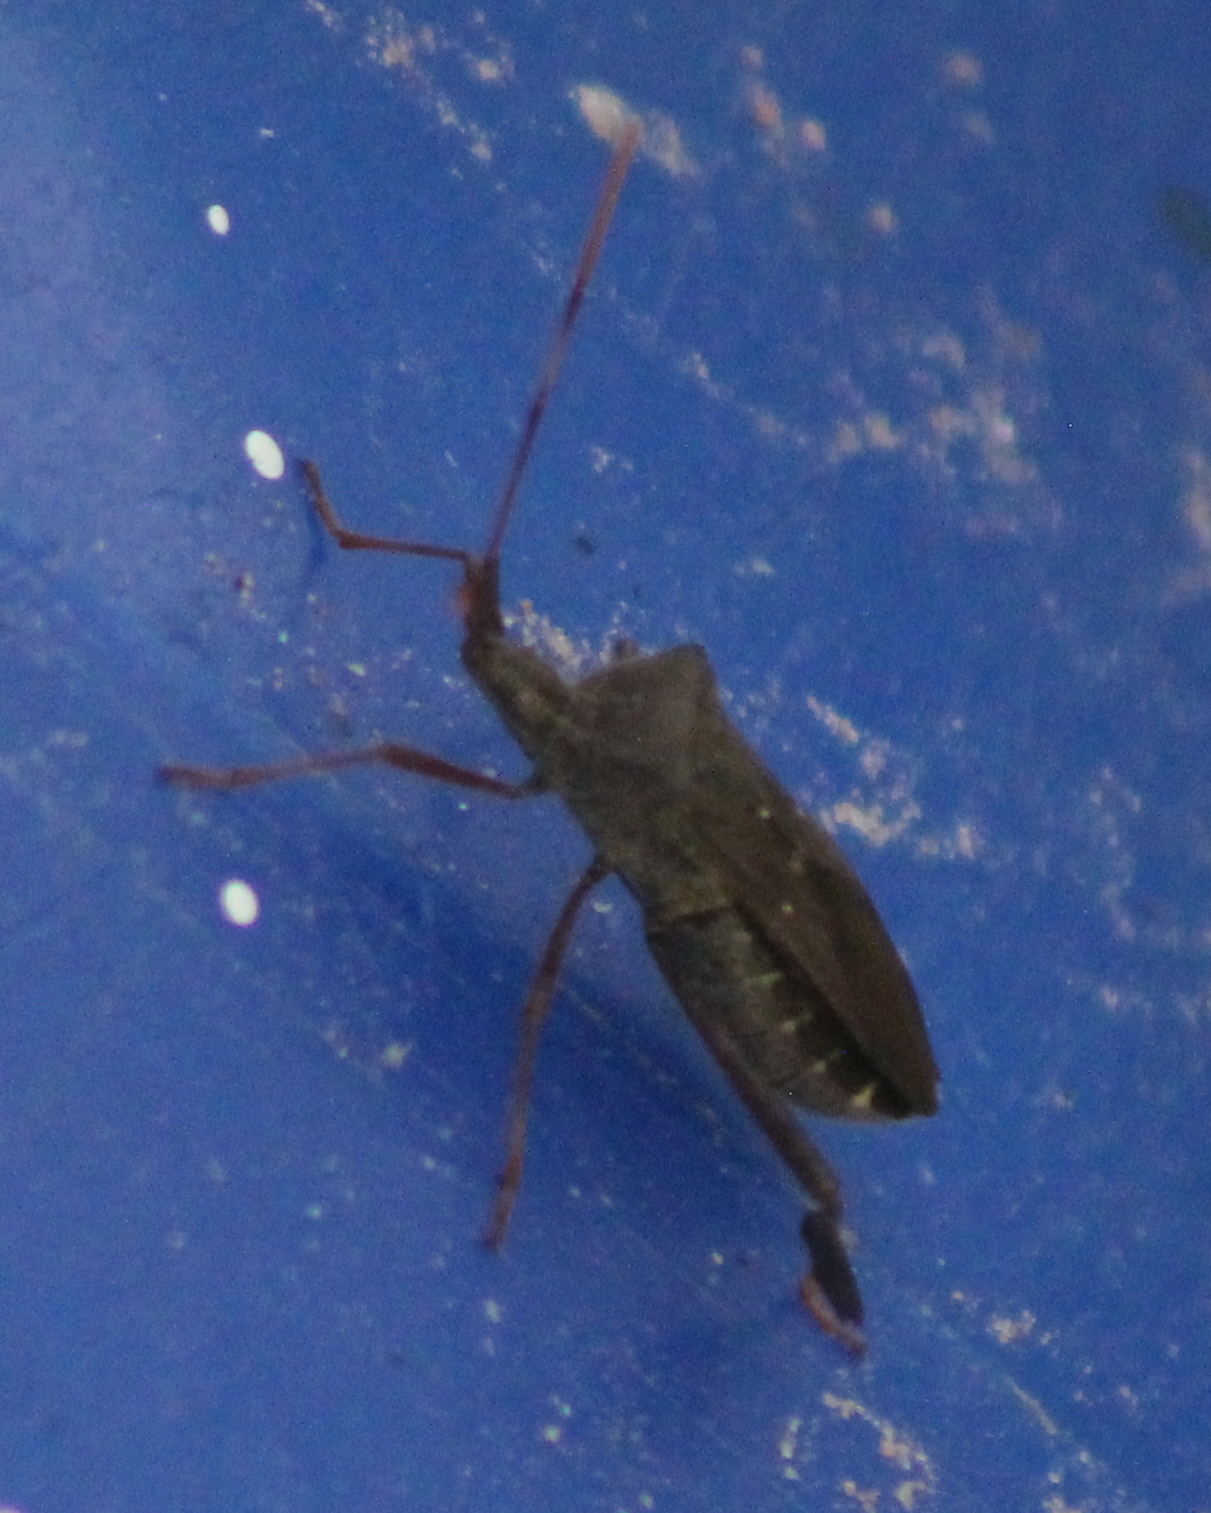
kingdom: Animalia
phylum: Arthropoda
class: Insecta
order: Hemiptera
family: Coreidae
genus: Leptoglossus
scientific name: Leptoglossus oppositus
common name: Northern leaf-footed bug
